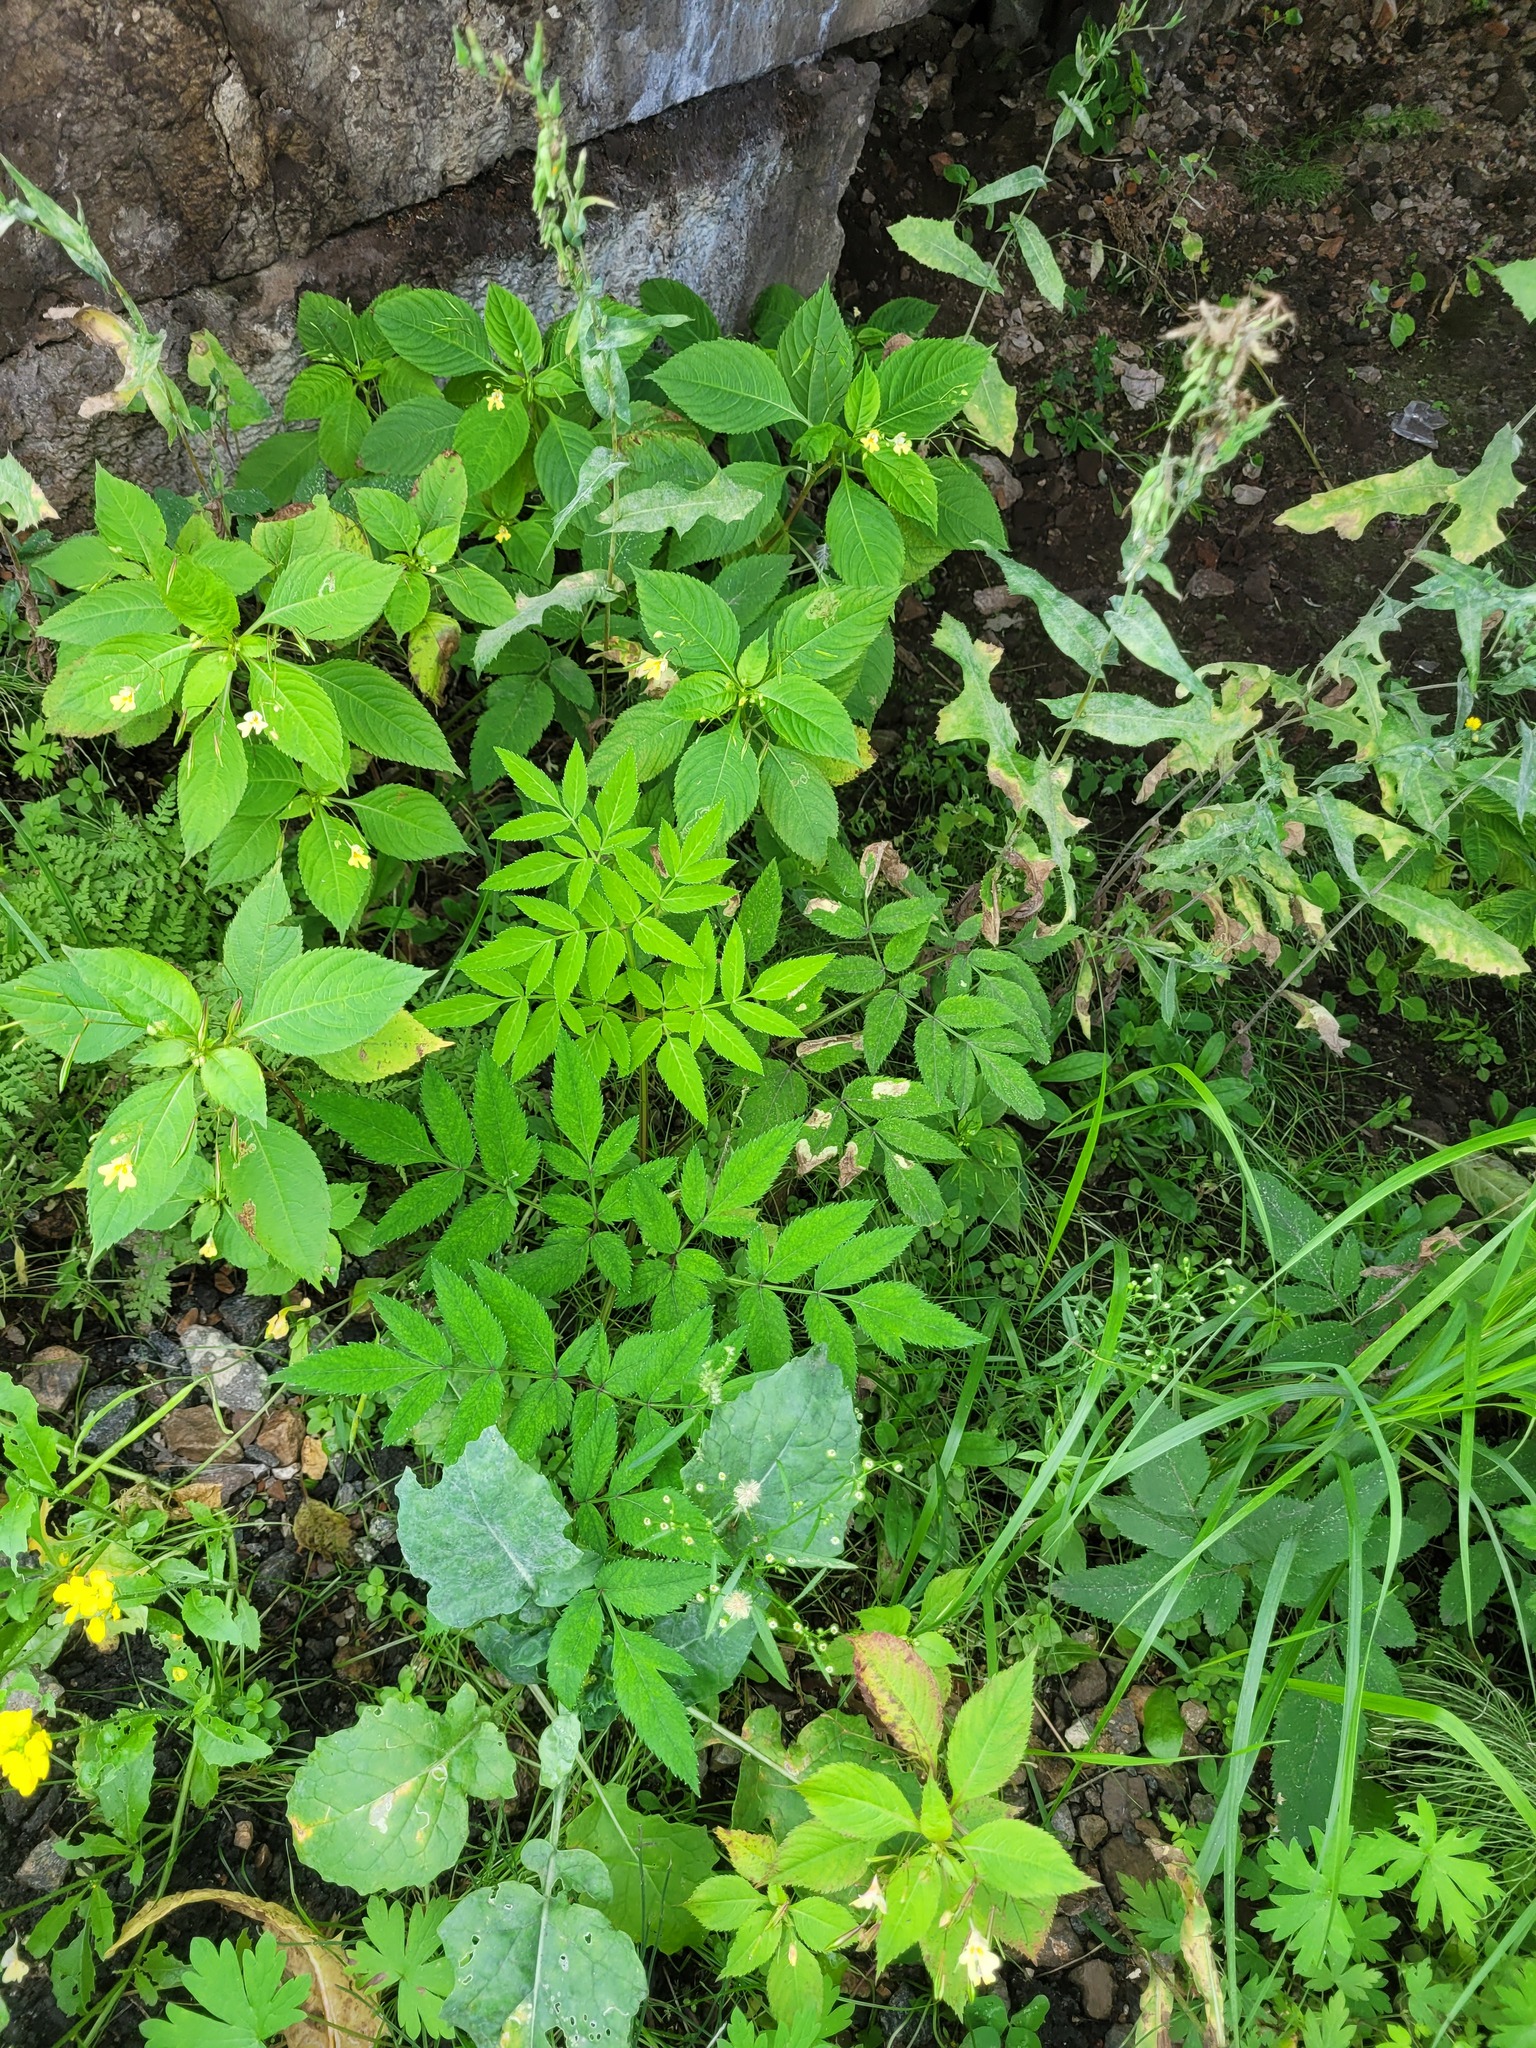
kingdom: Plantae
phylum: Tracheophyta
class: Magnoliopsida
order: Apiales
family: Apiaceae
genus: Angelica
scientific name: Angelica sylvestris
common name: Wild angelica
